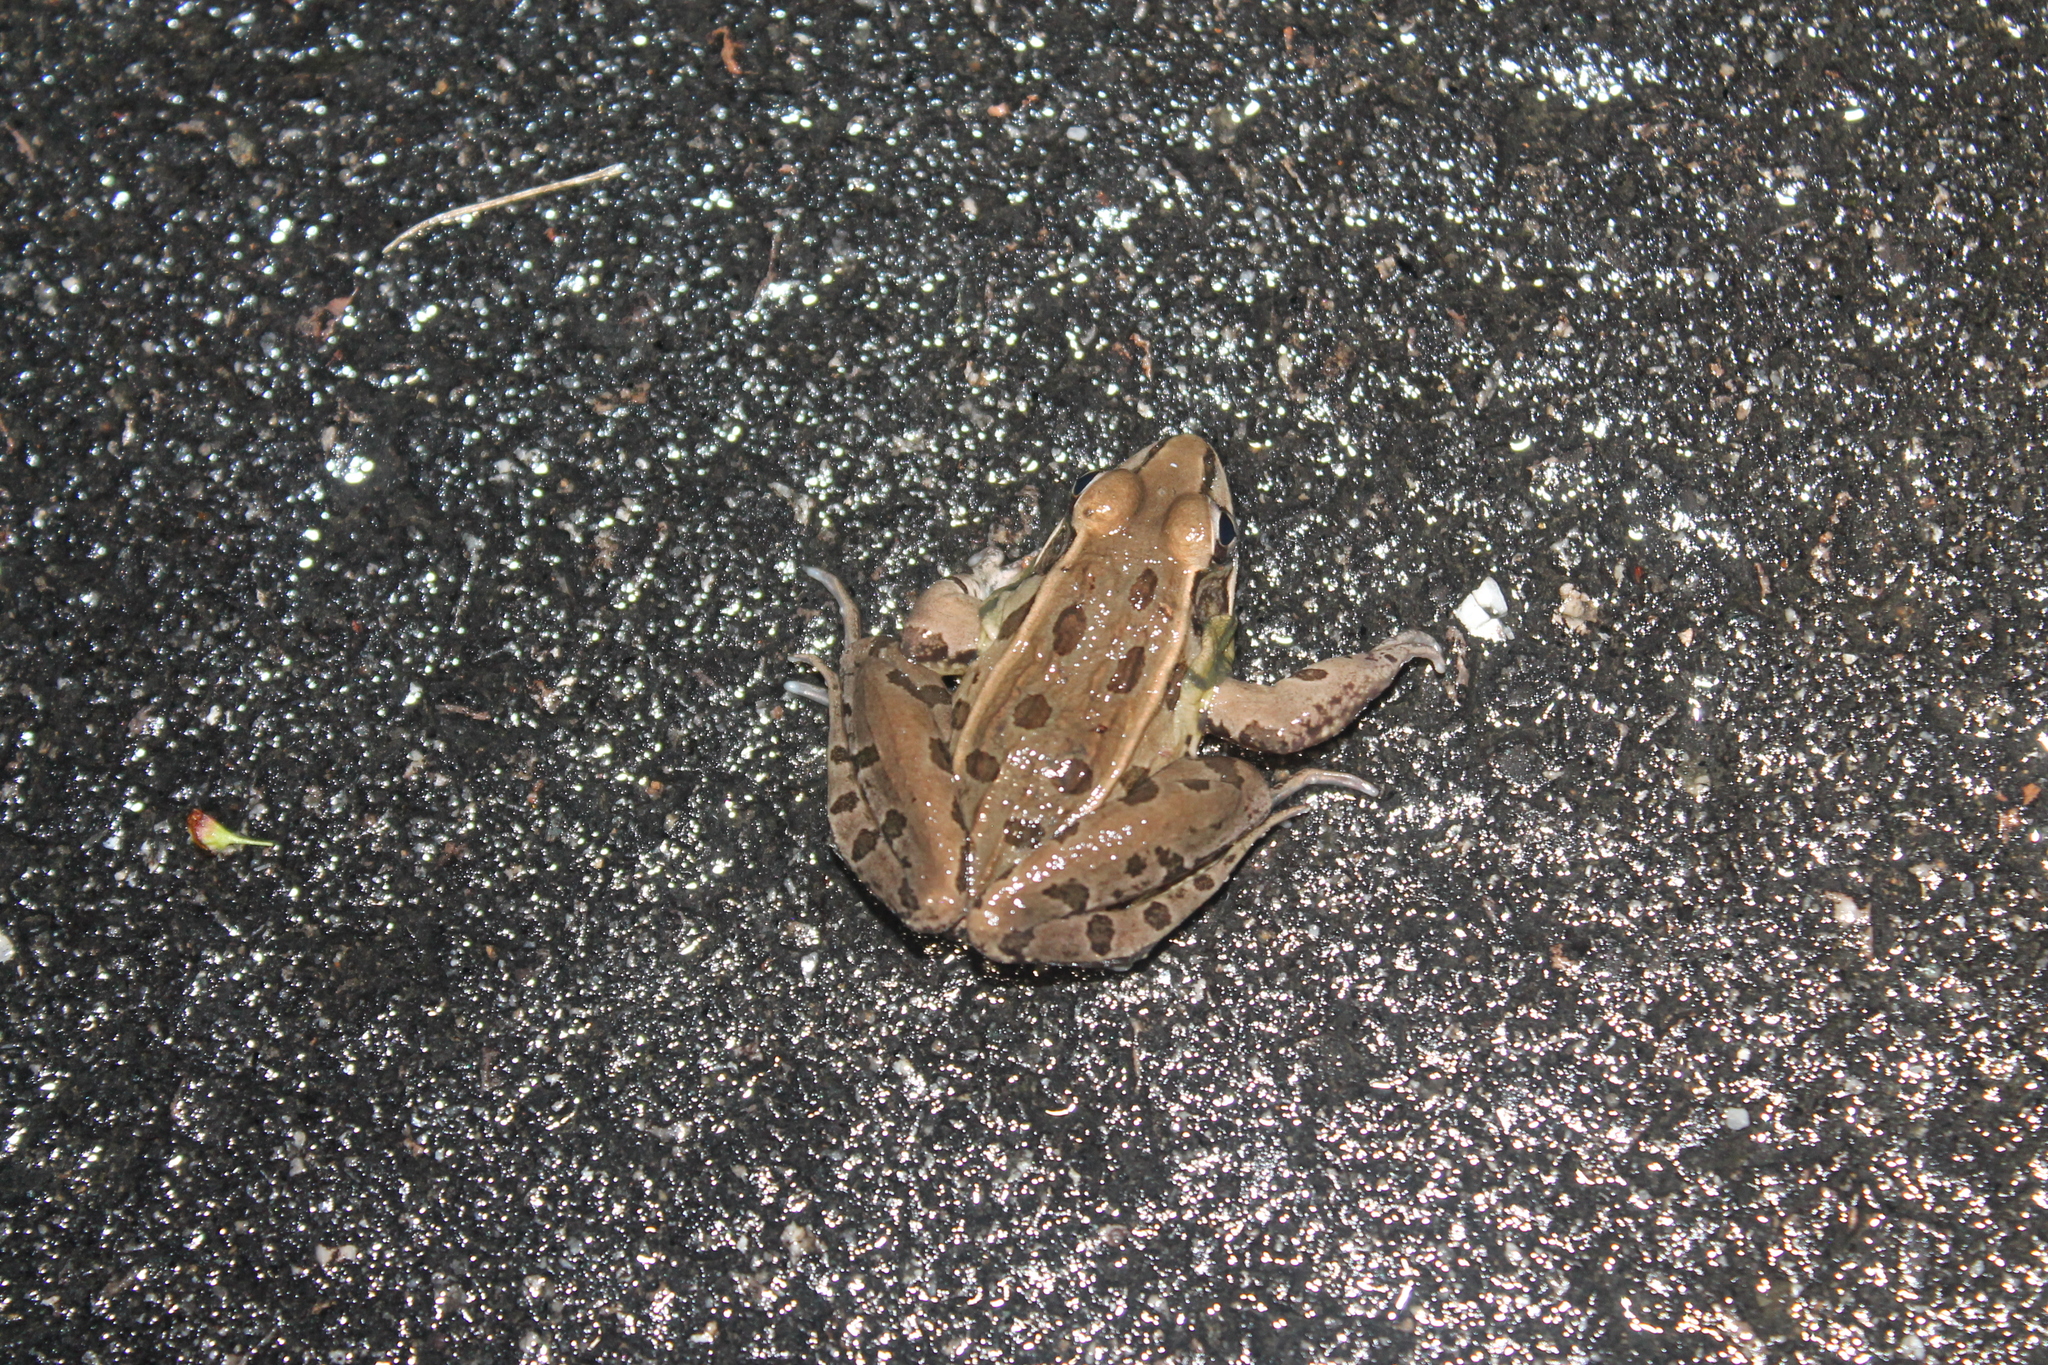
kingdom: Animalia
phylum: Chordata
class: Amphibia
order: Anura
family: Ranidae
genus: Lithobates
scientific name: Lithobates sphenocephalus
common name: Southern leopard frog
